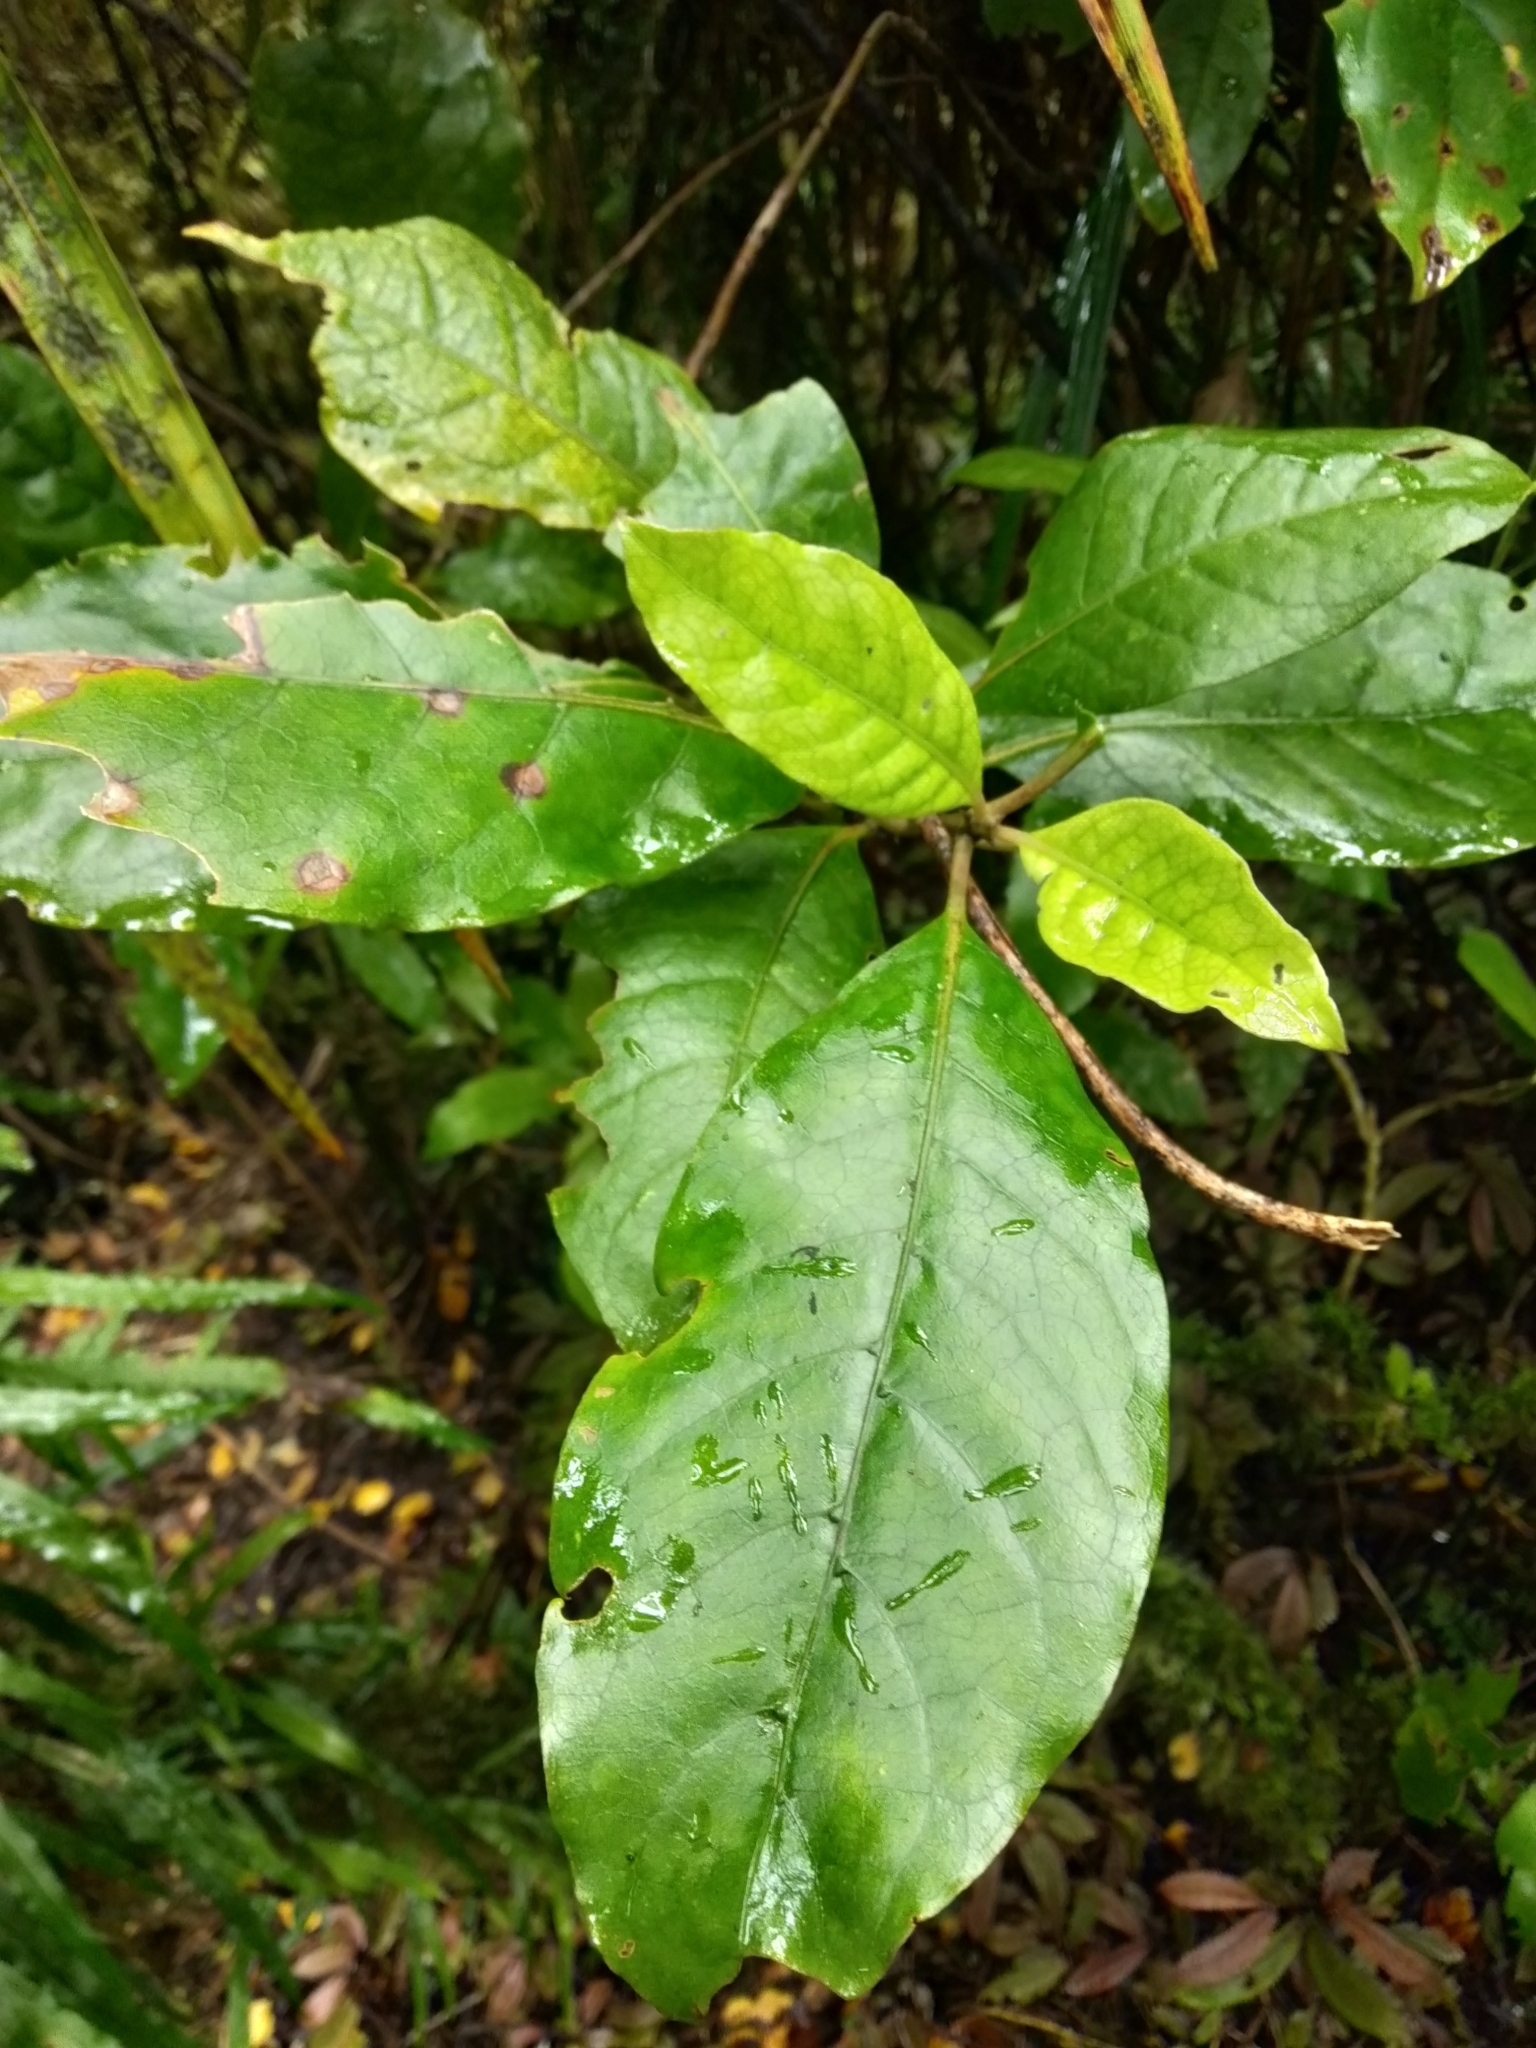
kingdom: Plantae
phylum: Tracheophyta
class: Magnoliopsida
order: Gentianales
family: Rubiaceae
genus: Coprosma
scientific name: Coprosma autumnalis
